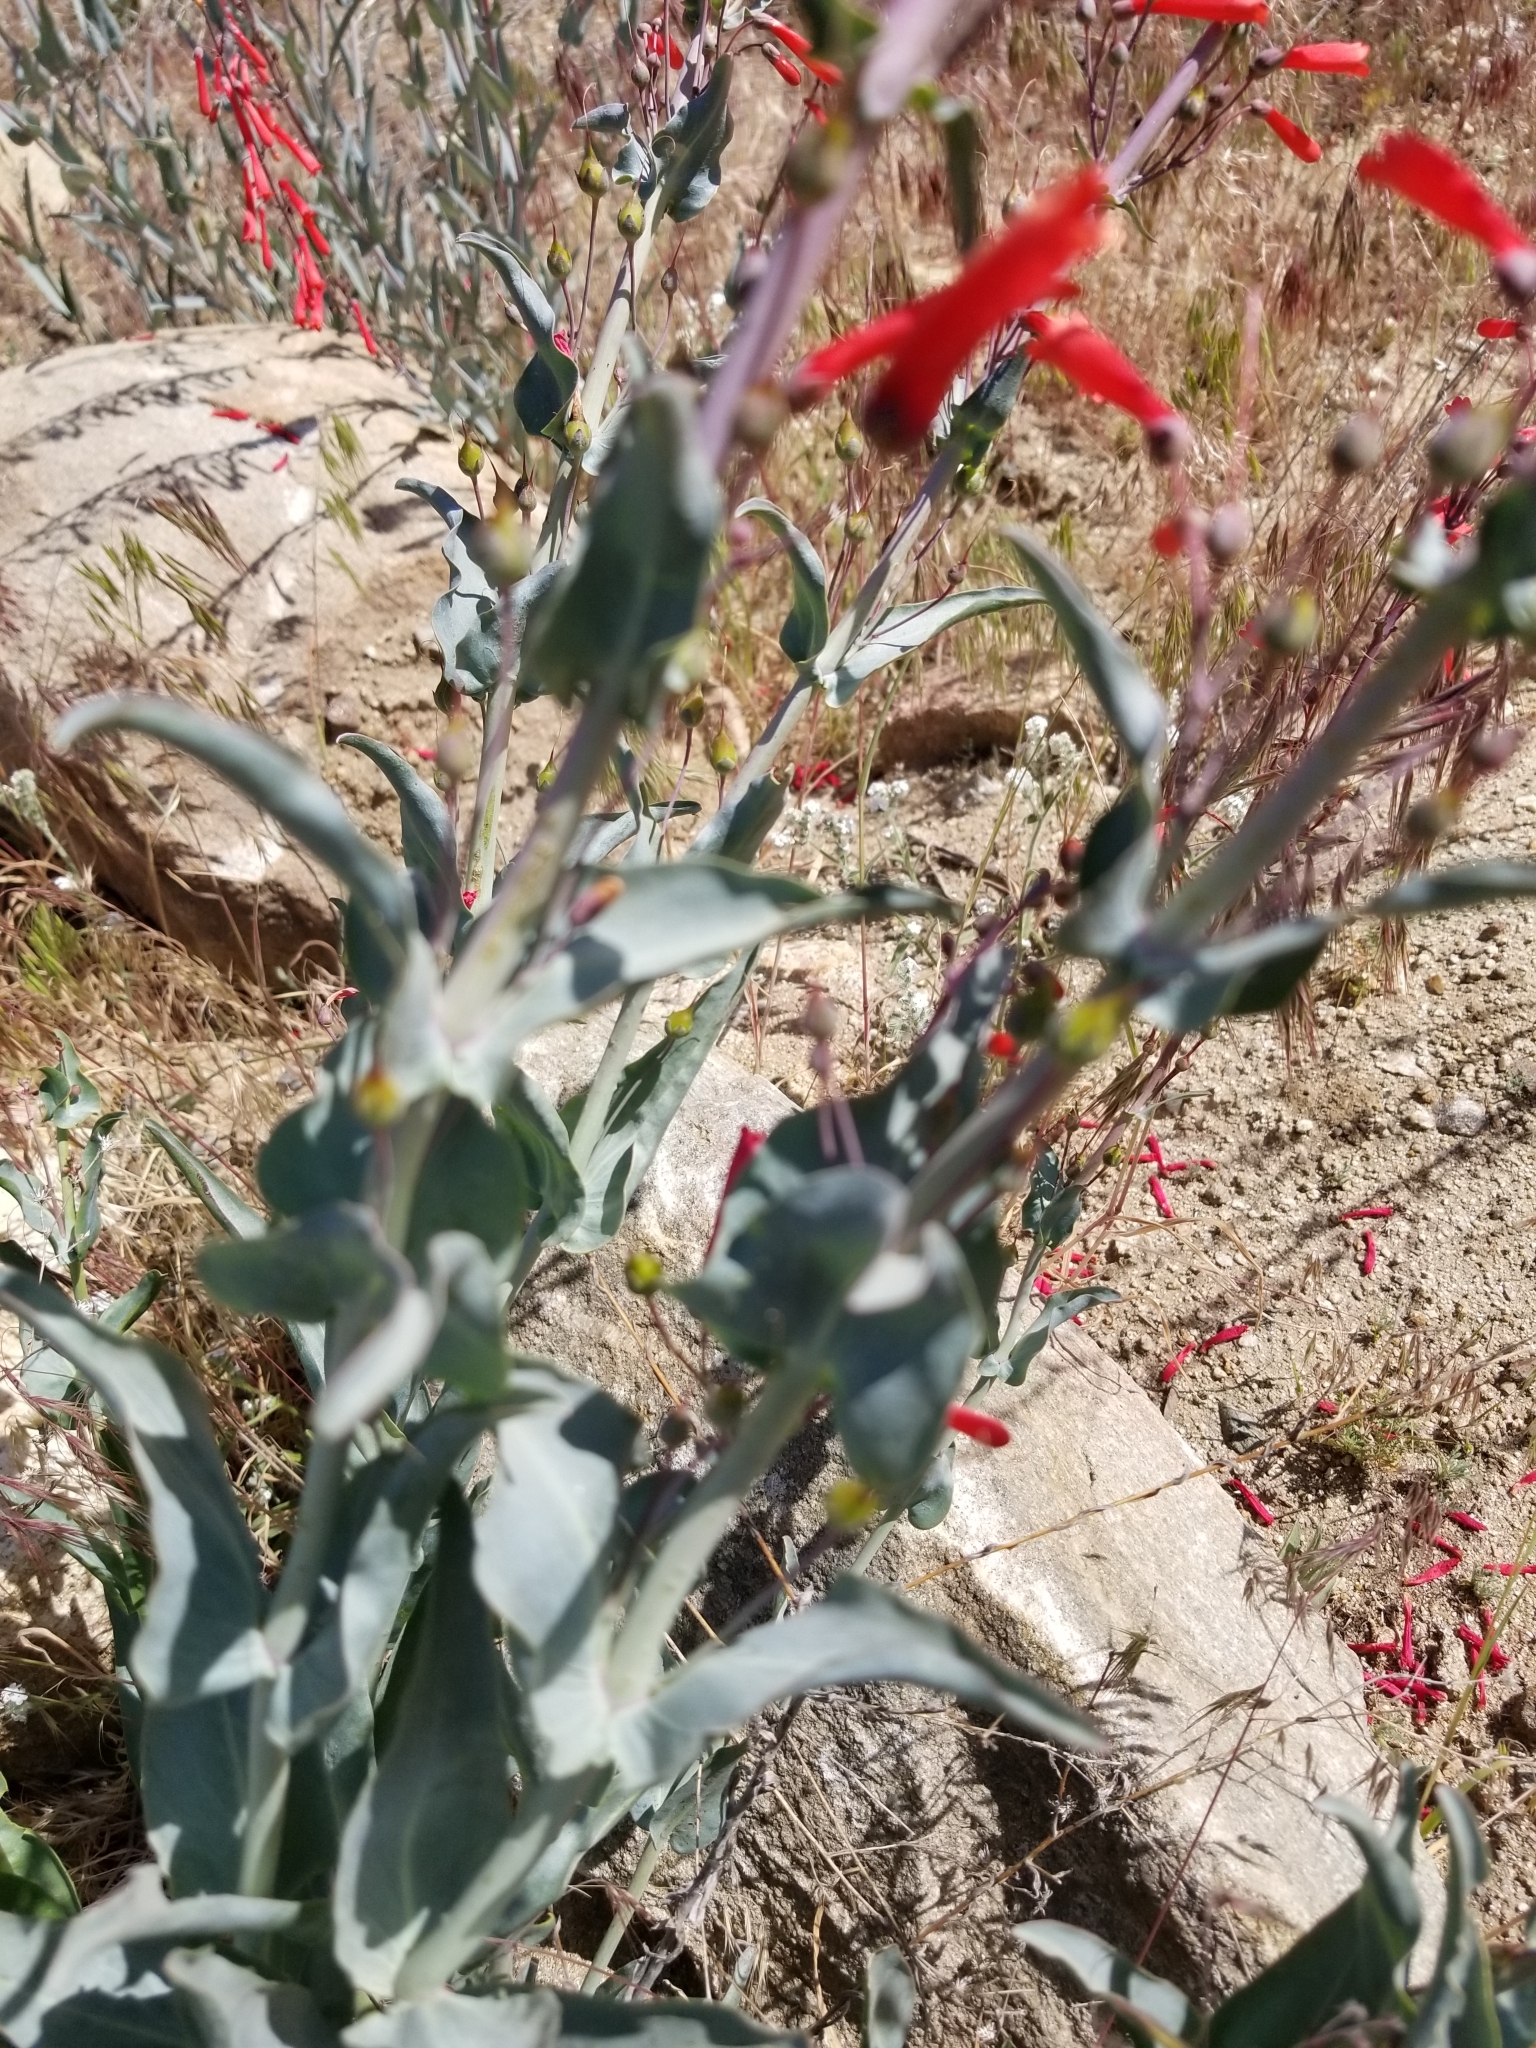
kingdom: Plantae
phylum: Tracheophyta
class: Magnoliopsida
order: Lamiales
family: Plantaginaceae
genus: Penstemon
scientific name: Penstemon centranthifolius
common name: Scarlet bugler
